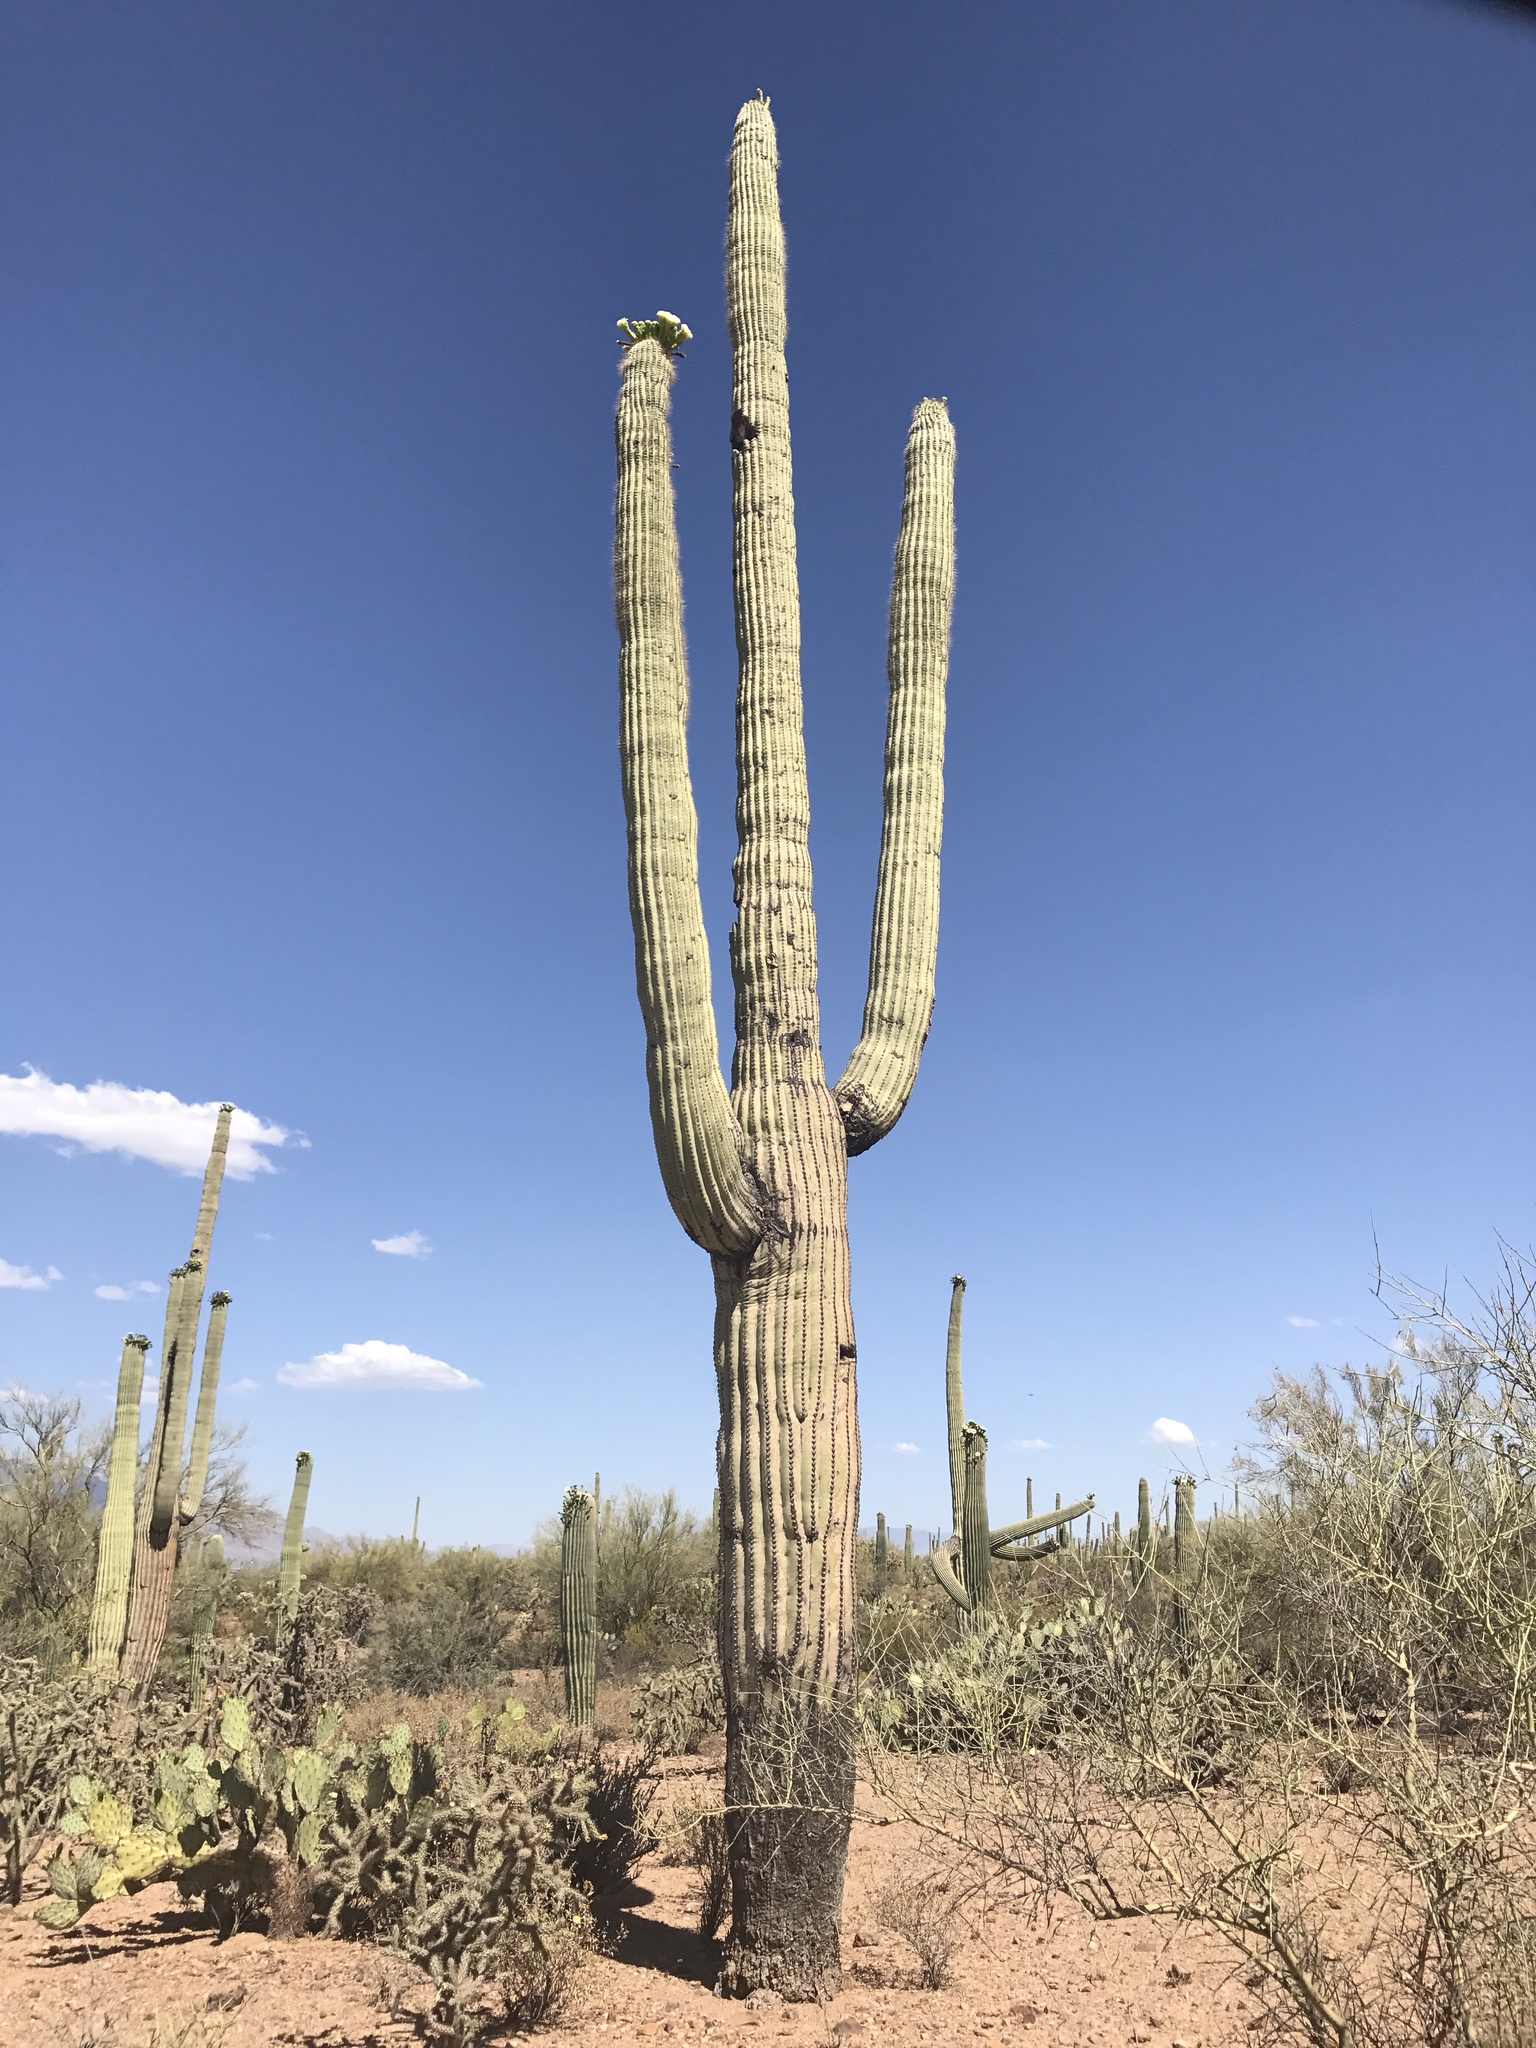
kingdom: Plantae
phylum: Tracheophyta
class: Magnoliopsida
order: Caryophyllales
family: Cactaceae
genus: Carnegiea
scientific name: Carnegiea gigantea
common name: Saguaro
